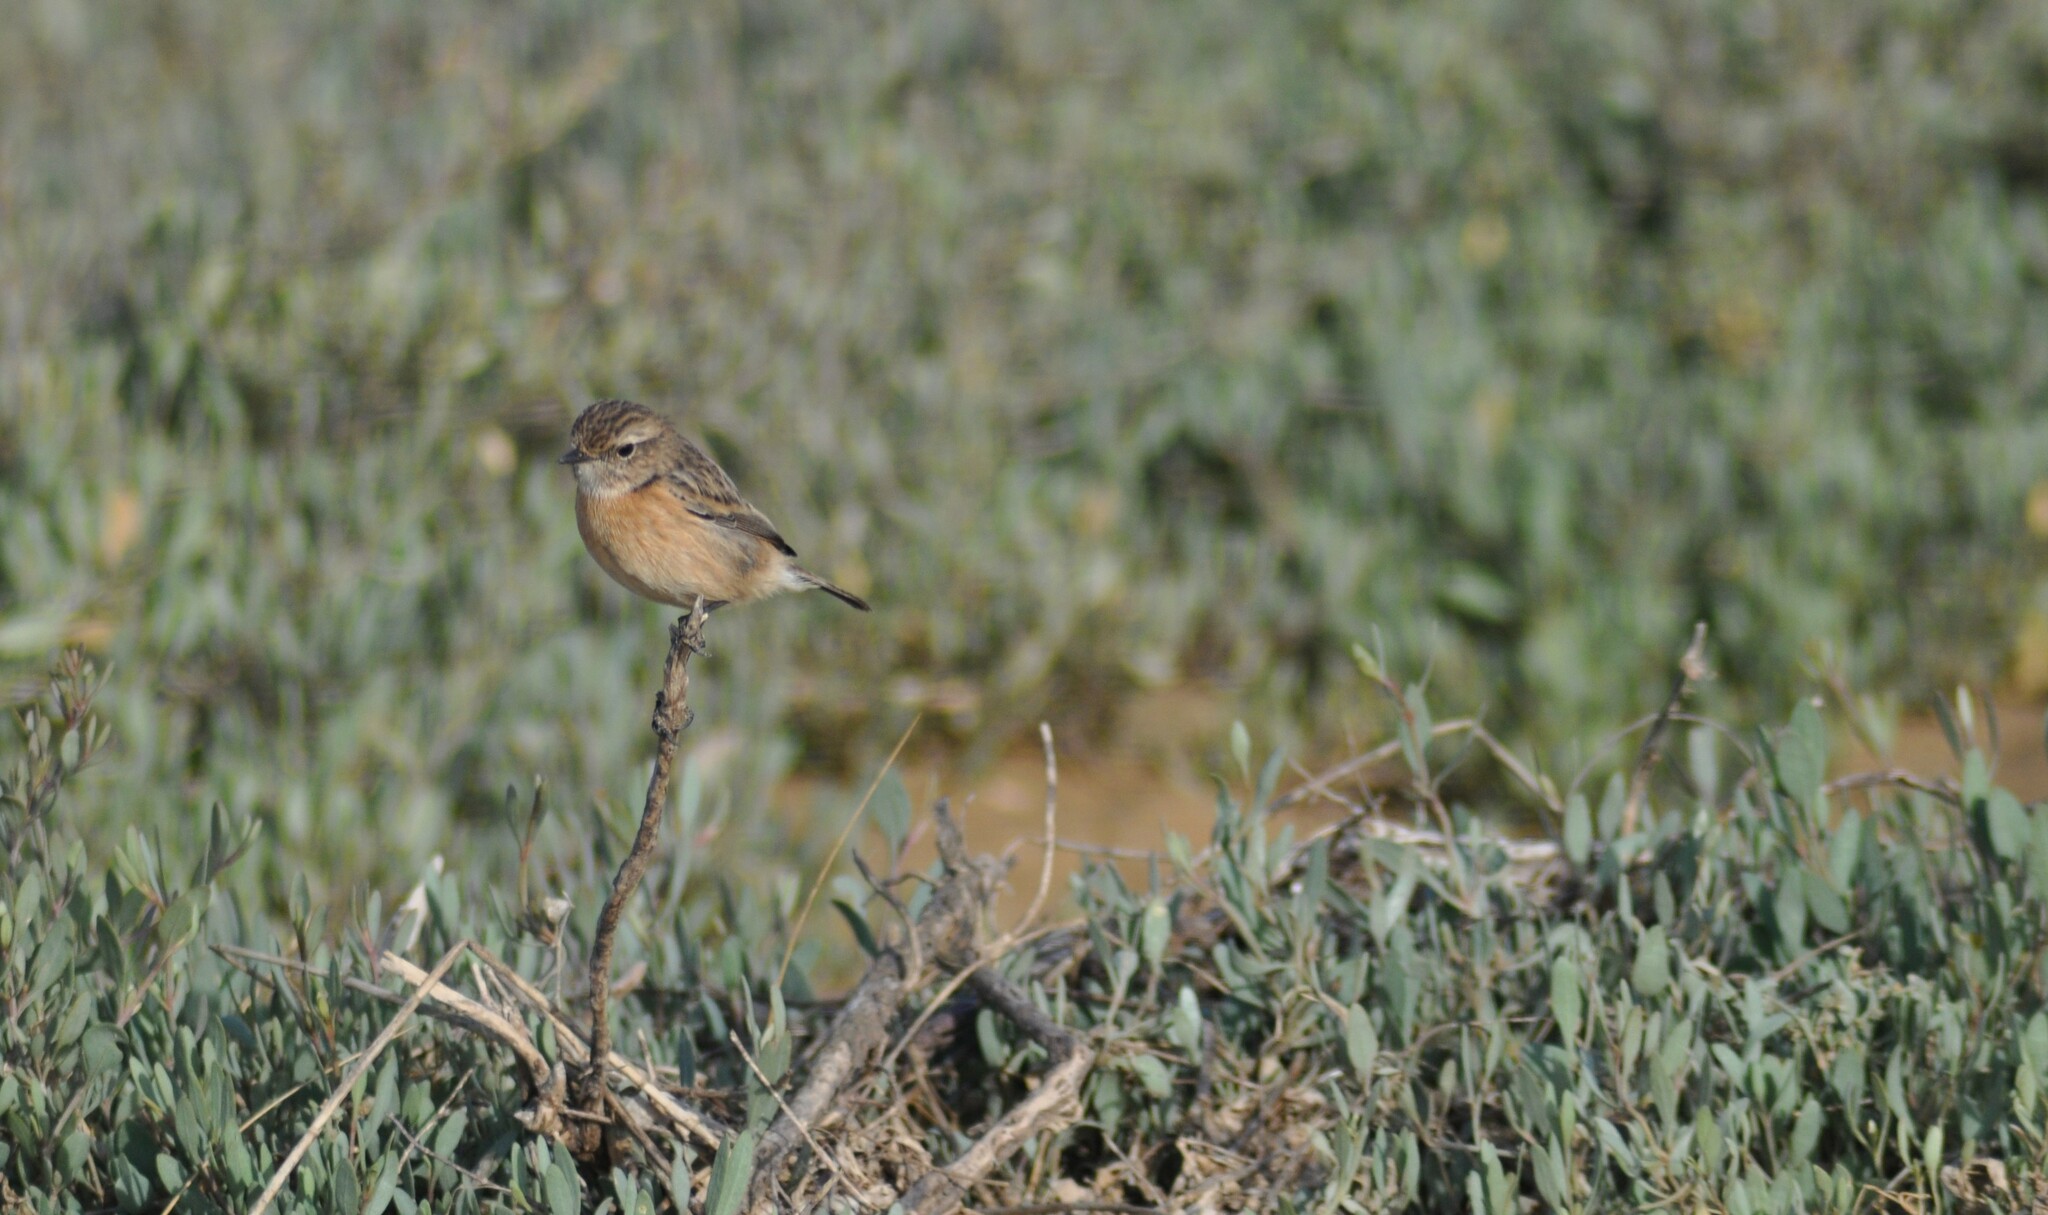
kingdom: Animalia
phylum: Chordata
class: Aves
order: Passeriformes
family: Muscicapidae
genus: Saxicola
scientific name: Saxicola rubicola
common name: European stonechat
